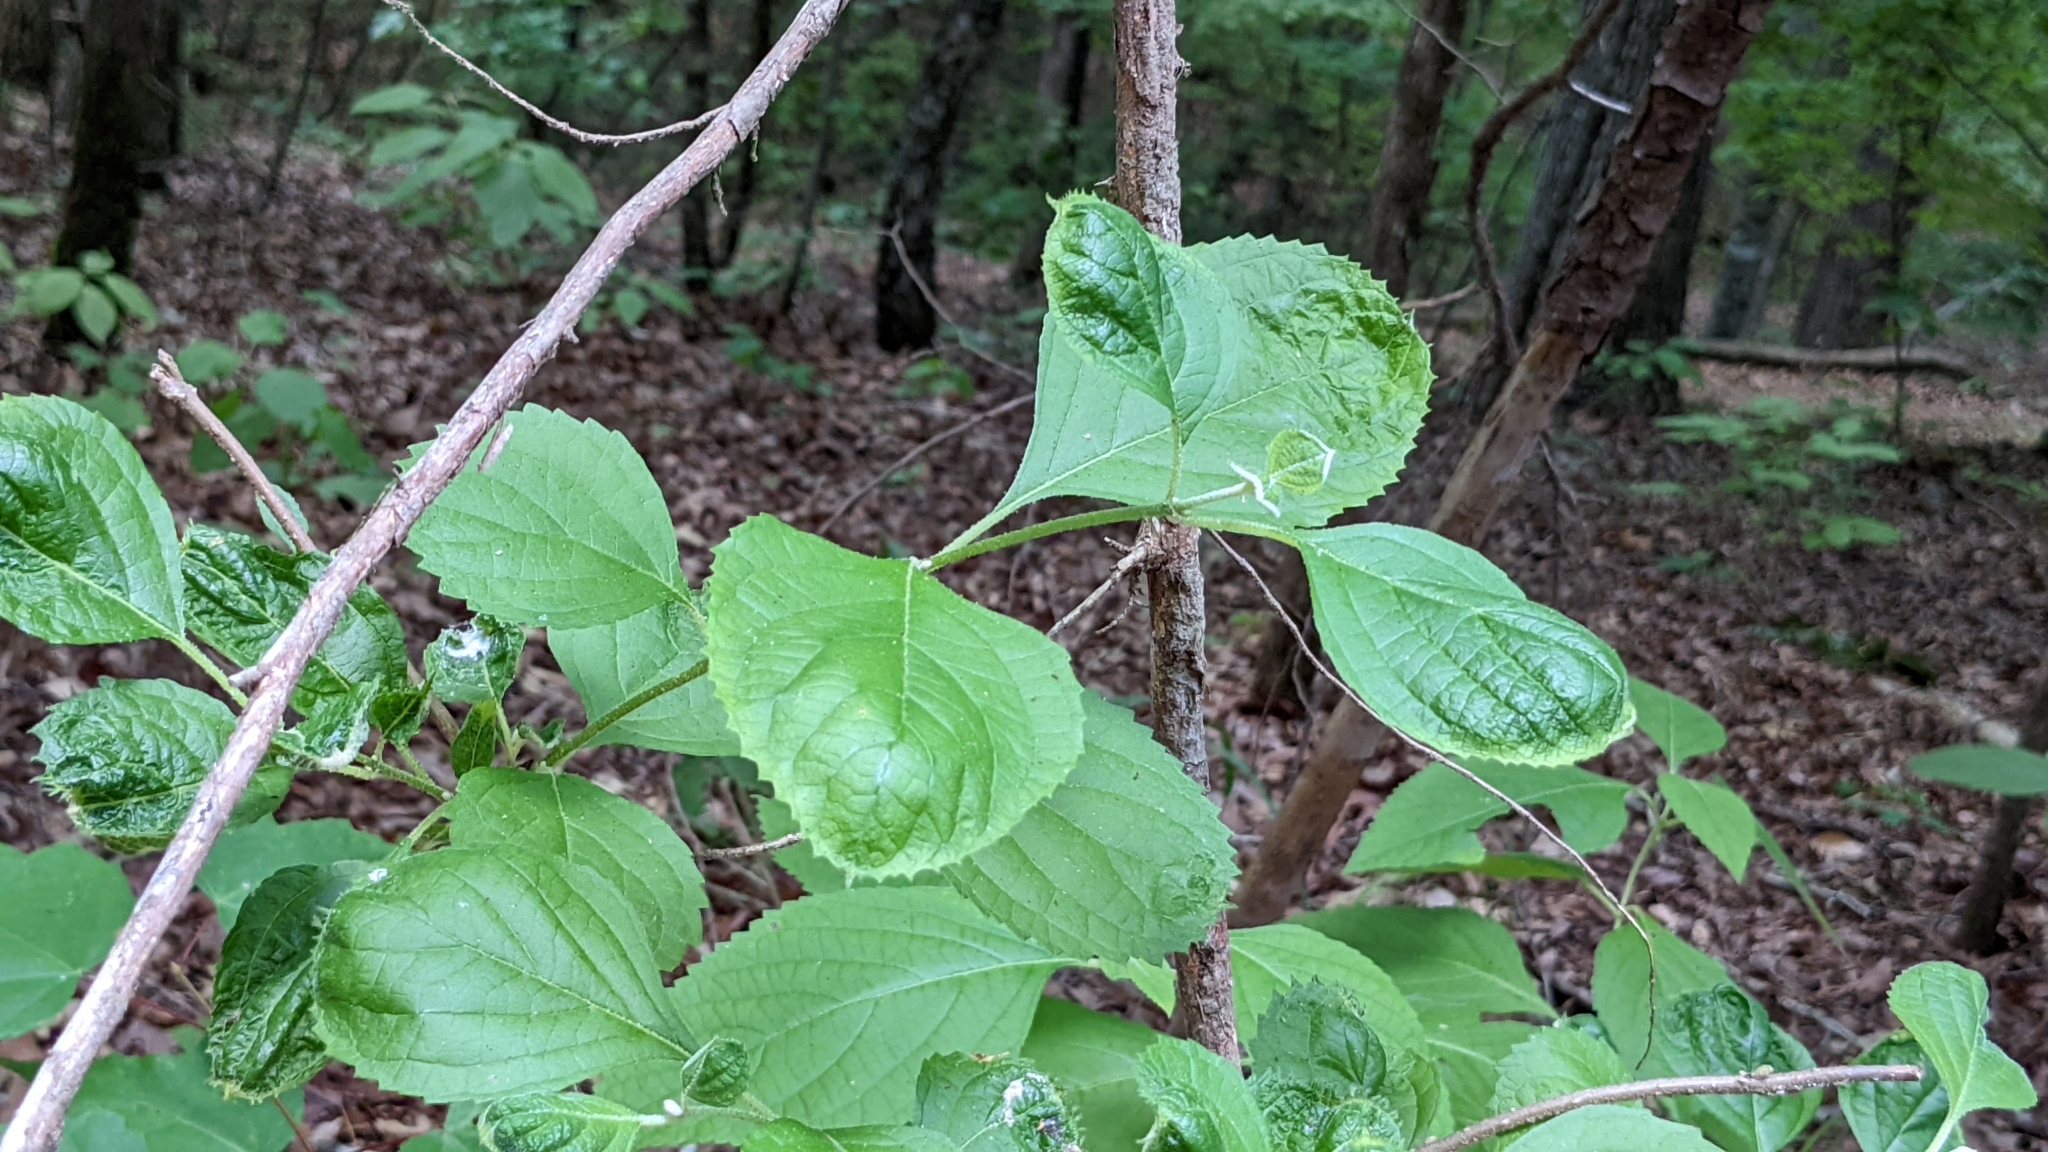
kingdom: Plantae
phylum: Tracheophyta
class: Magnoliopsida
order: Lamiales
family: Lamiaceae
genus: Callicarpa
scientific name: Callicarpa americana
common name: American beautyberry
